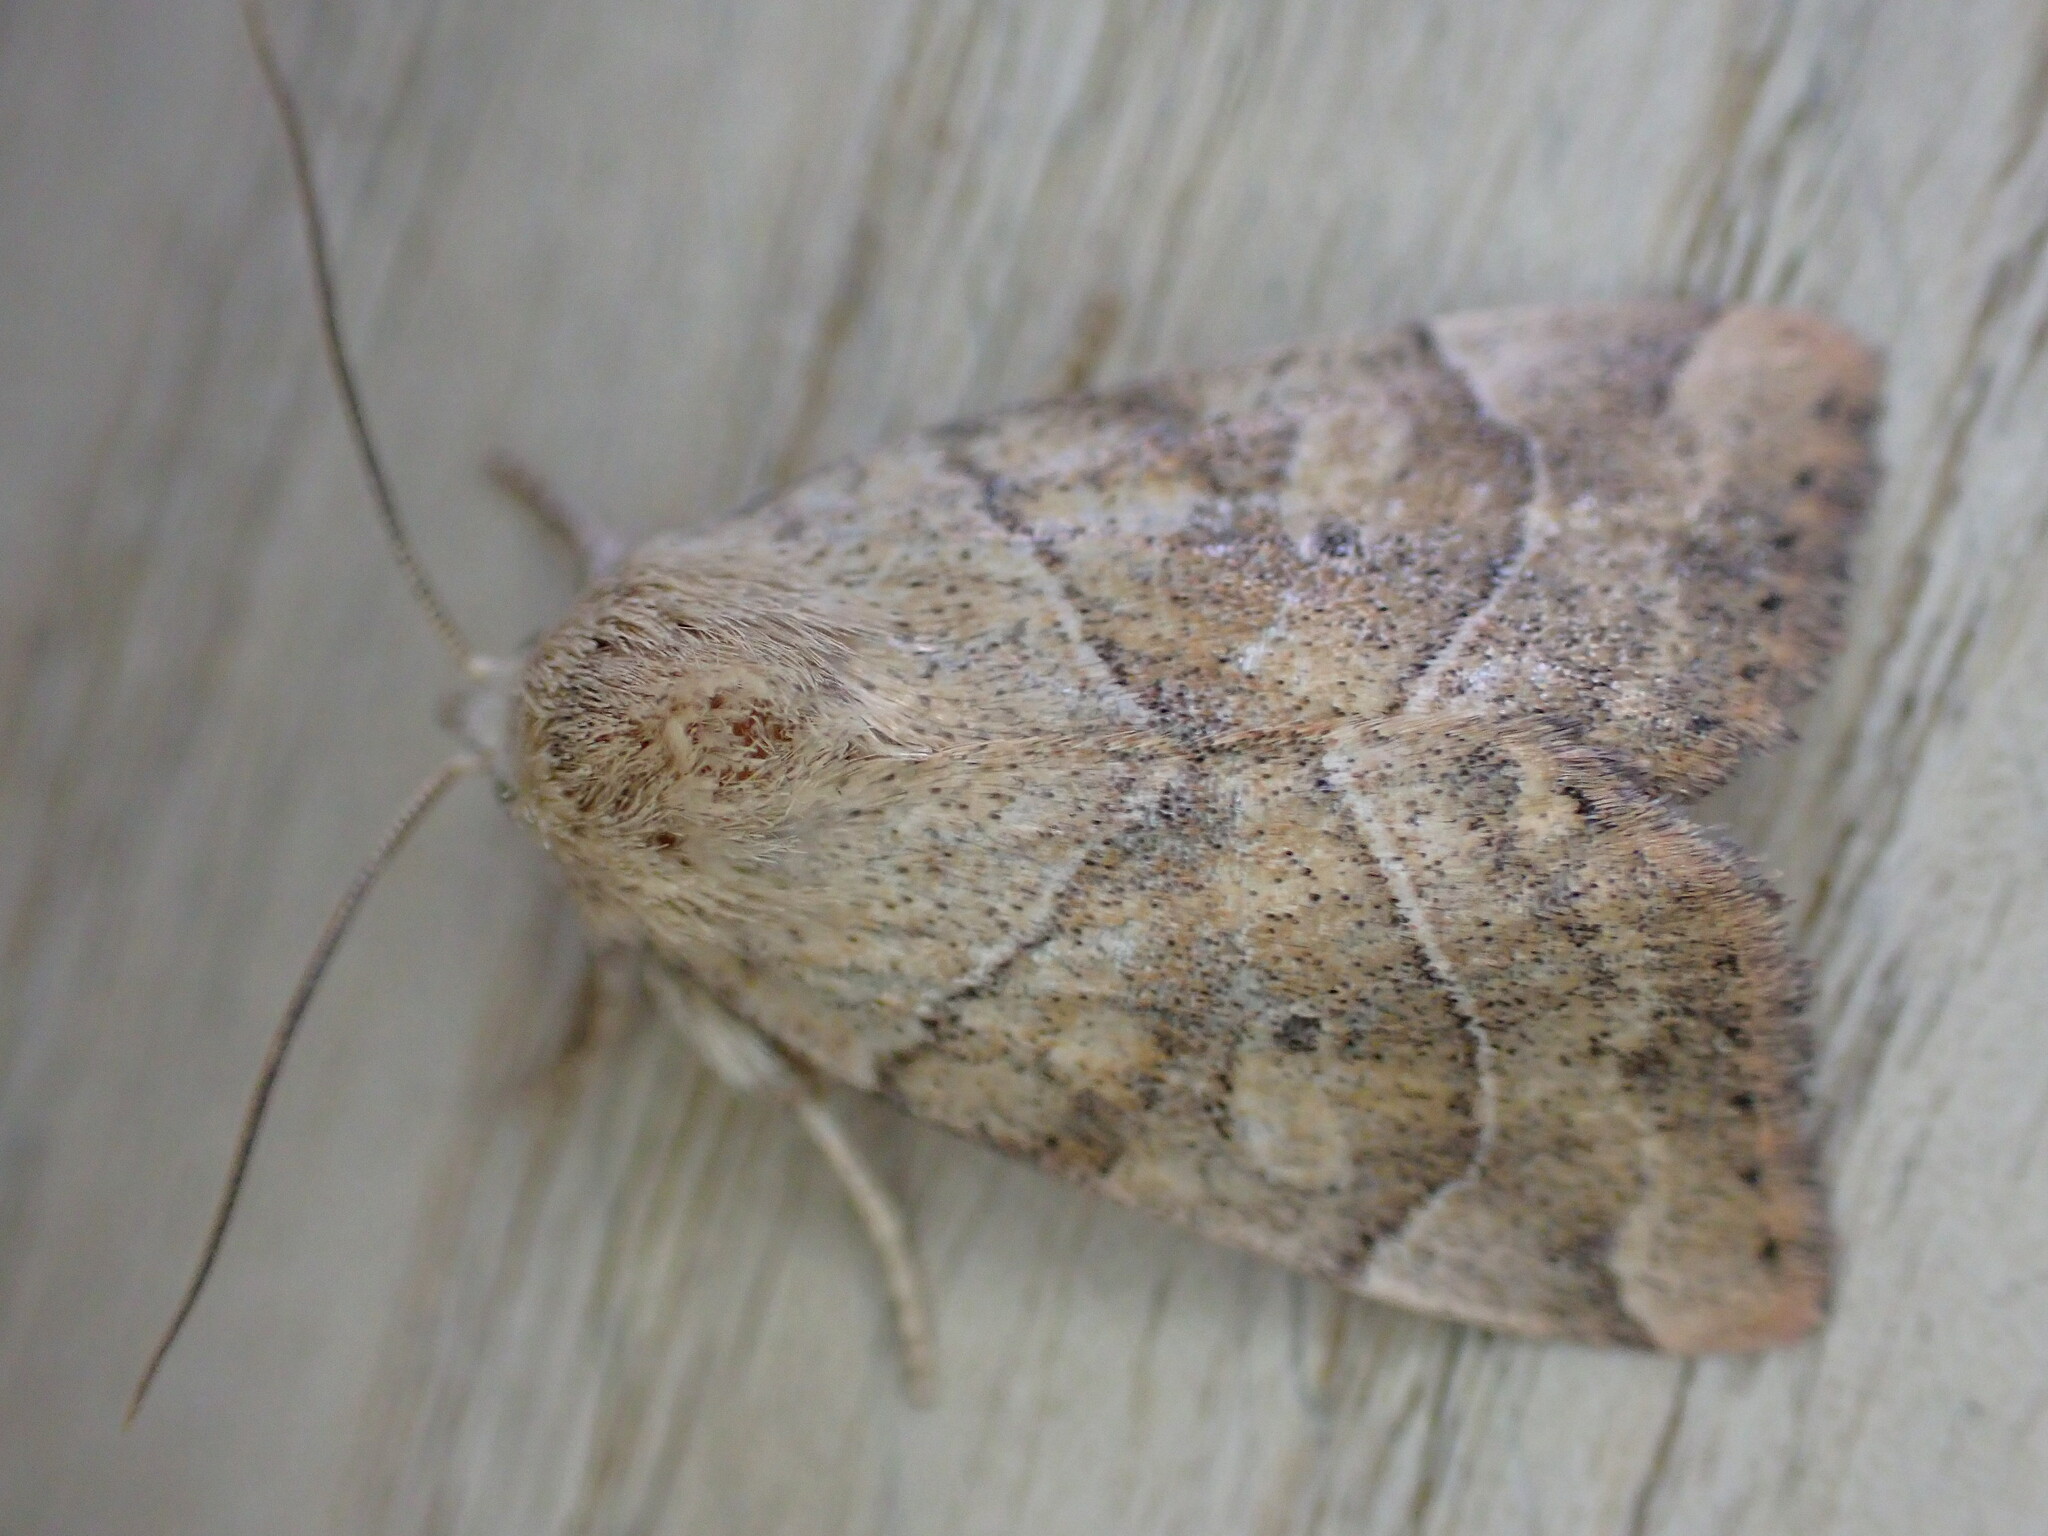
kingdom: Animalia
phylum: Arthropoda
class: Insecta
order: Lepidoptera
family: Noctuidae
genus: Cosmia
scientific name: Cosmia trapezina
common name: Dun-bar
